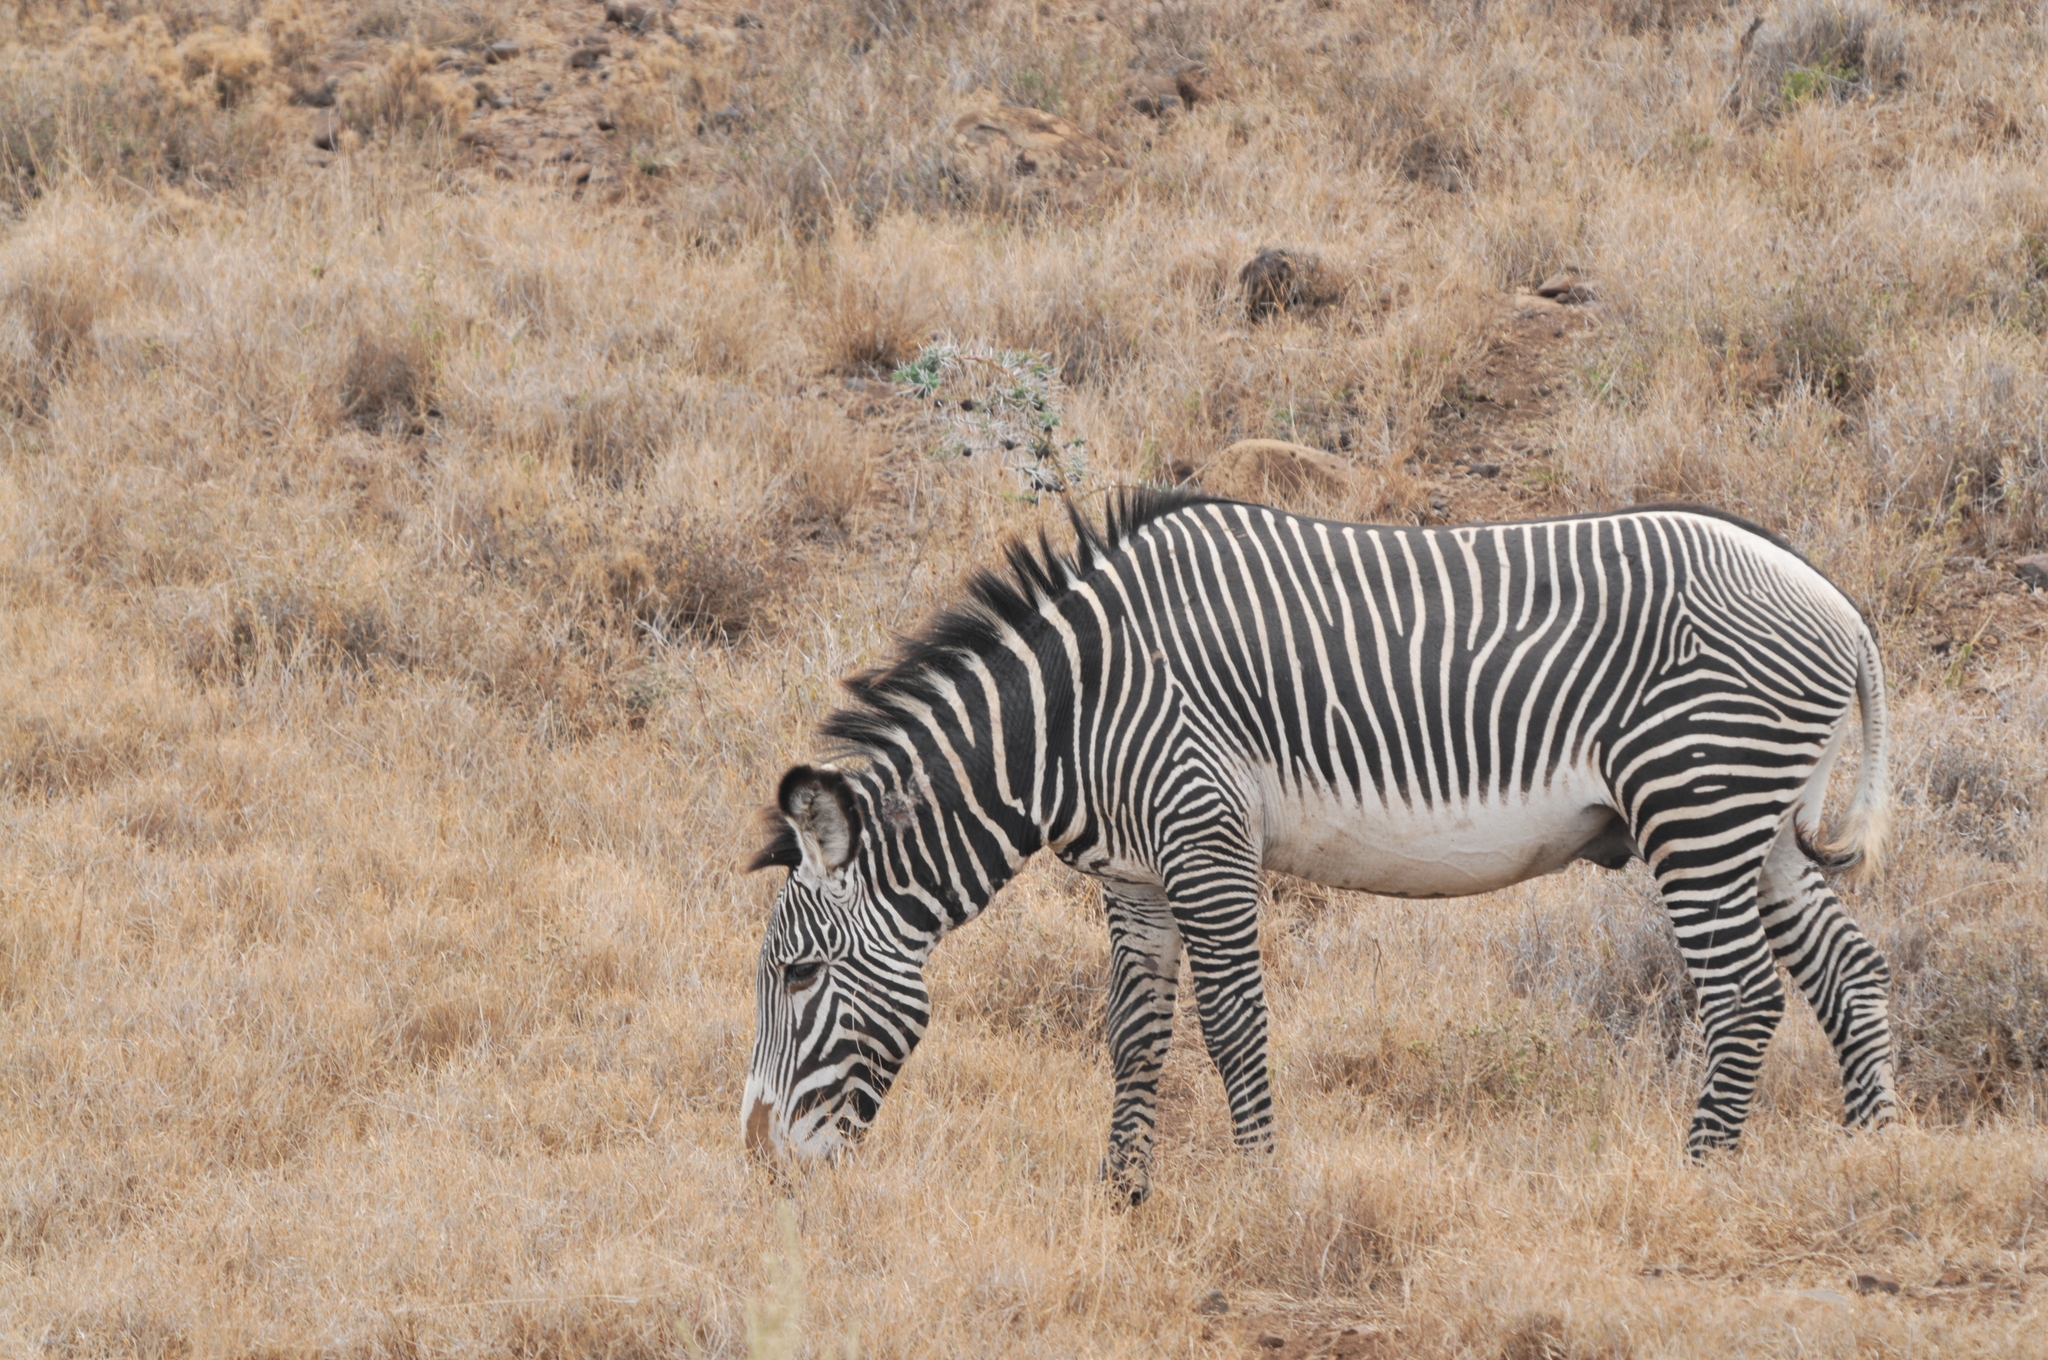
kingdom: Animalia
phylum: Chordata
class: Mammalia
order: Perissodactyla
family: Equidae
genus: Equus
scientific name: Equus grevyi
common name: Grevy's zebra
